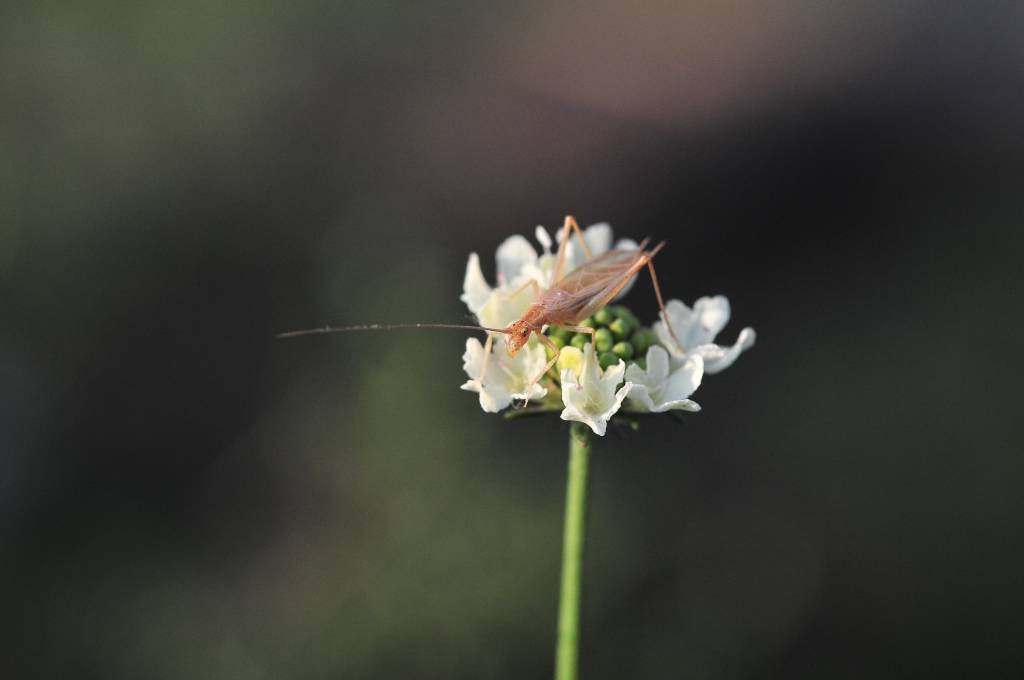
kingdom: Animalia
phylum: Arthropoda
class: Insecta
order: Orthoptera
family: Gryllidae
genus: Oecanthus
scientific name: Oecanthus pellucens
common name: Tree-cricket
